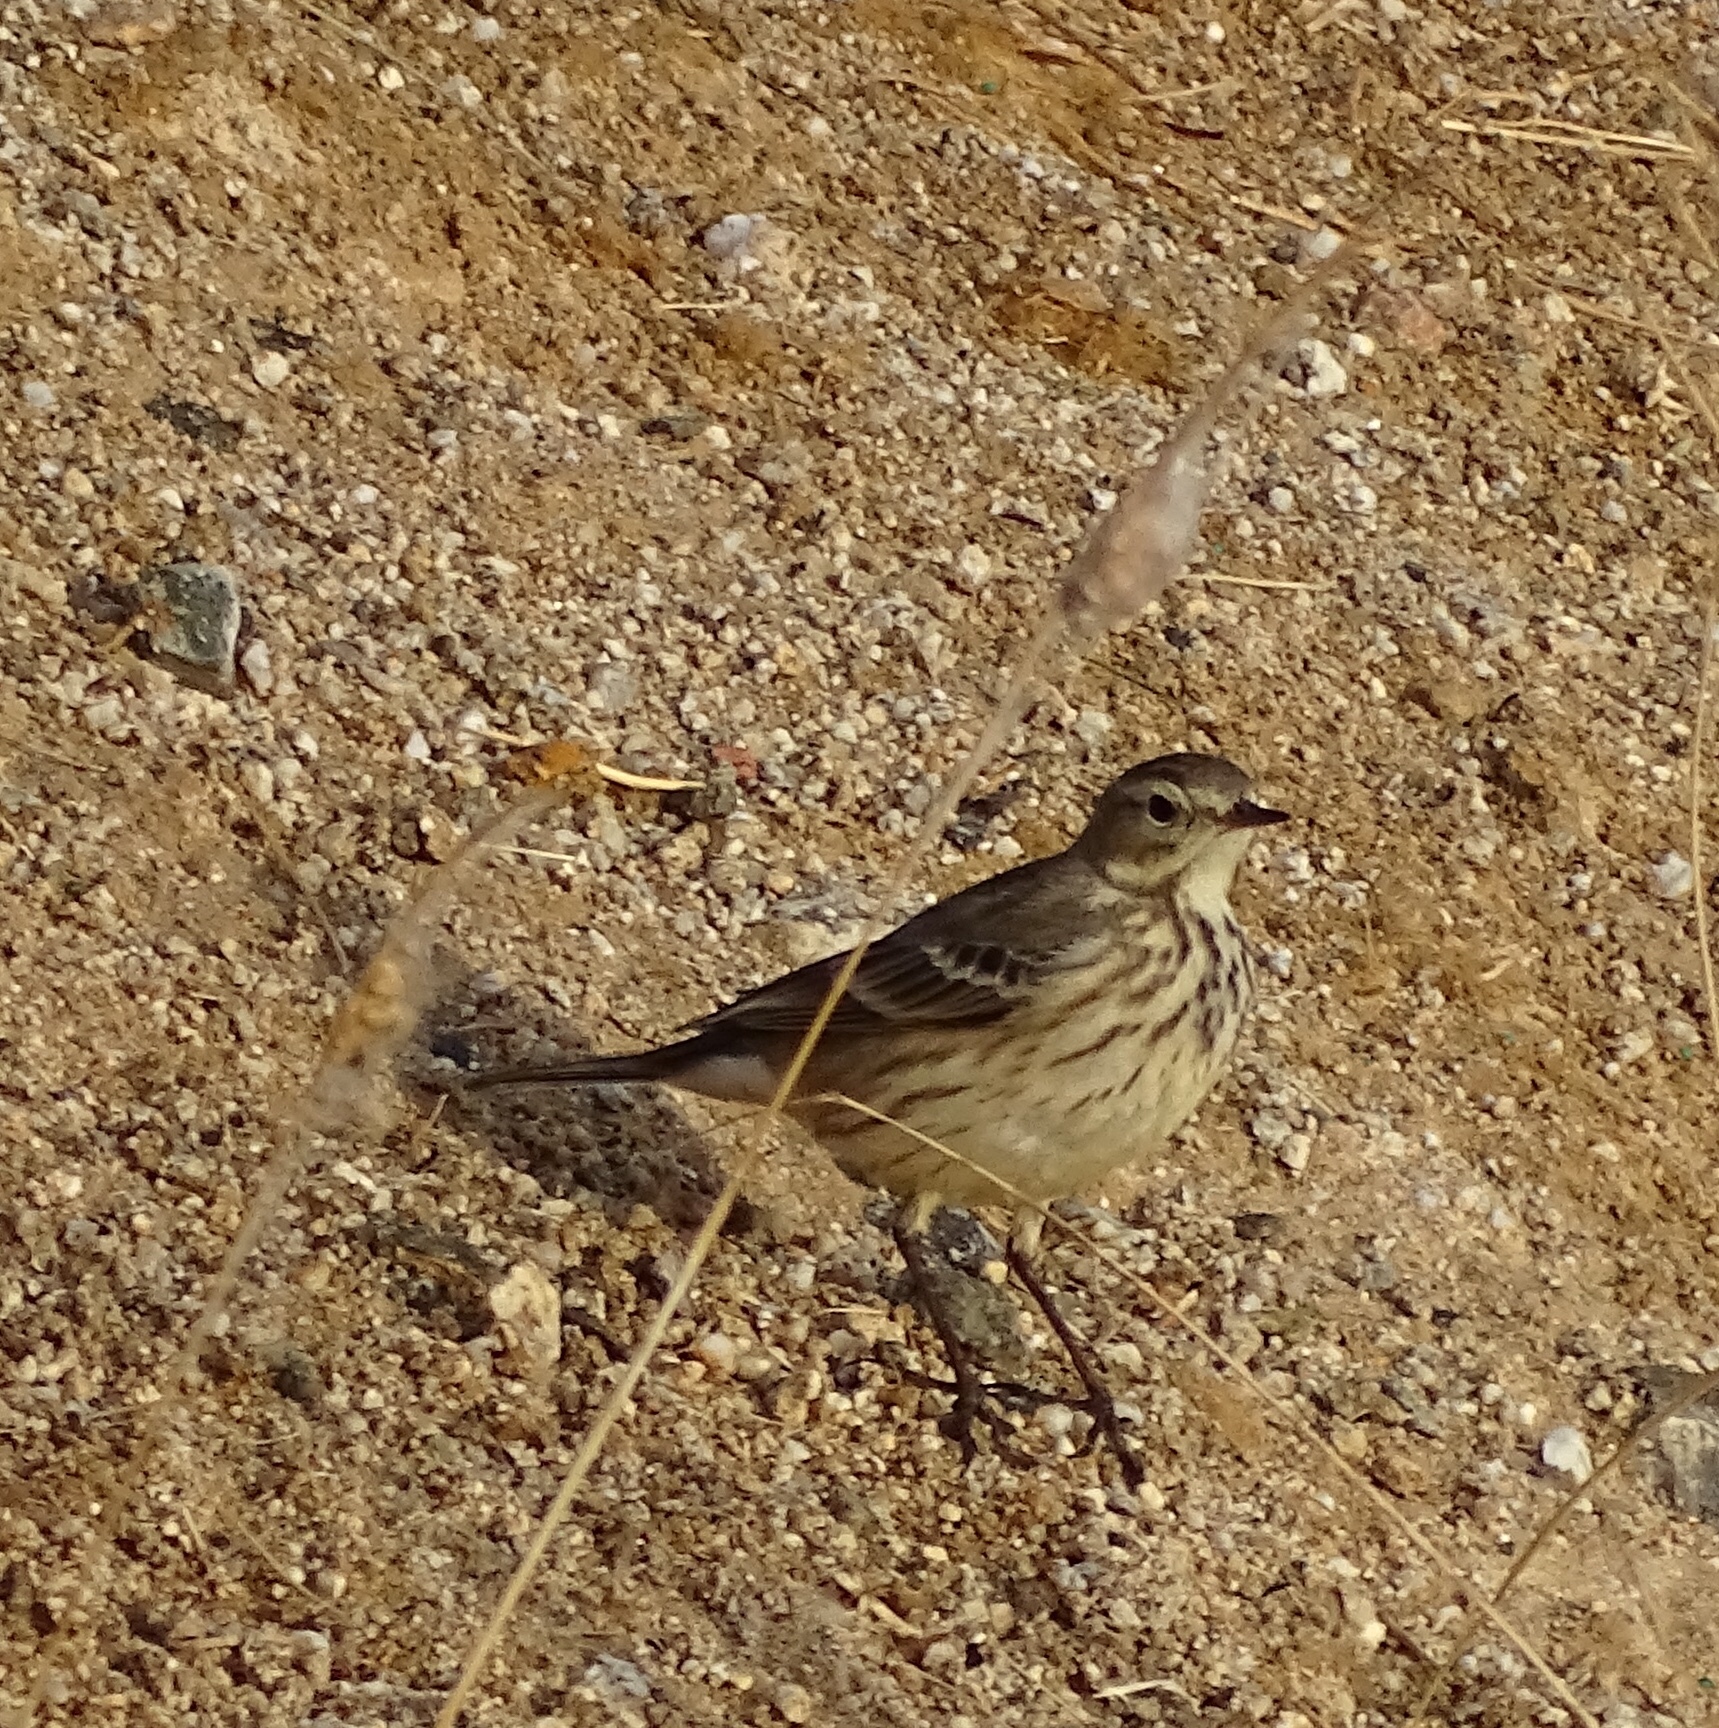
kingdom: Animalia
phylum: Chordata
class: Aves
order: Passeriformes
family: Motacillidae
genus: Anthus
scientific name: Anthus rubescens
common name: Buff-bellied pipit
